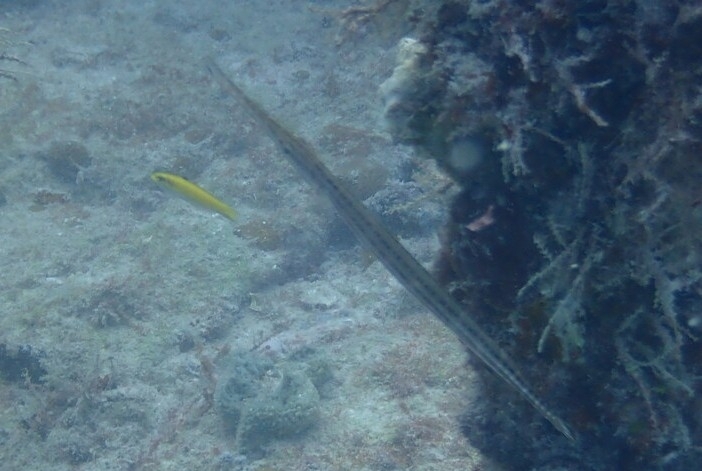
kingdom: Animalia
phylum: Chordata
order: Syngnathiformes
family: Aulostomidae
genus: Aulostomus
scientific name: Aulostomus maculatus
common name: West atlantic trumpetfish
